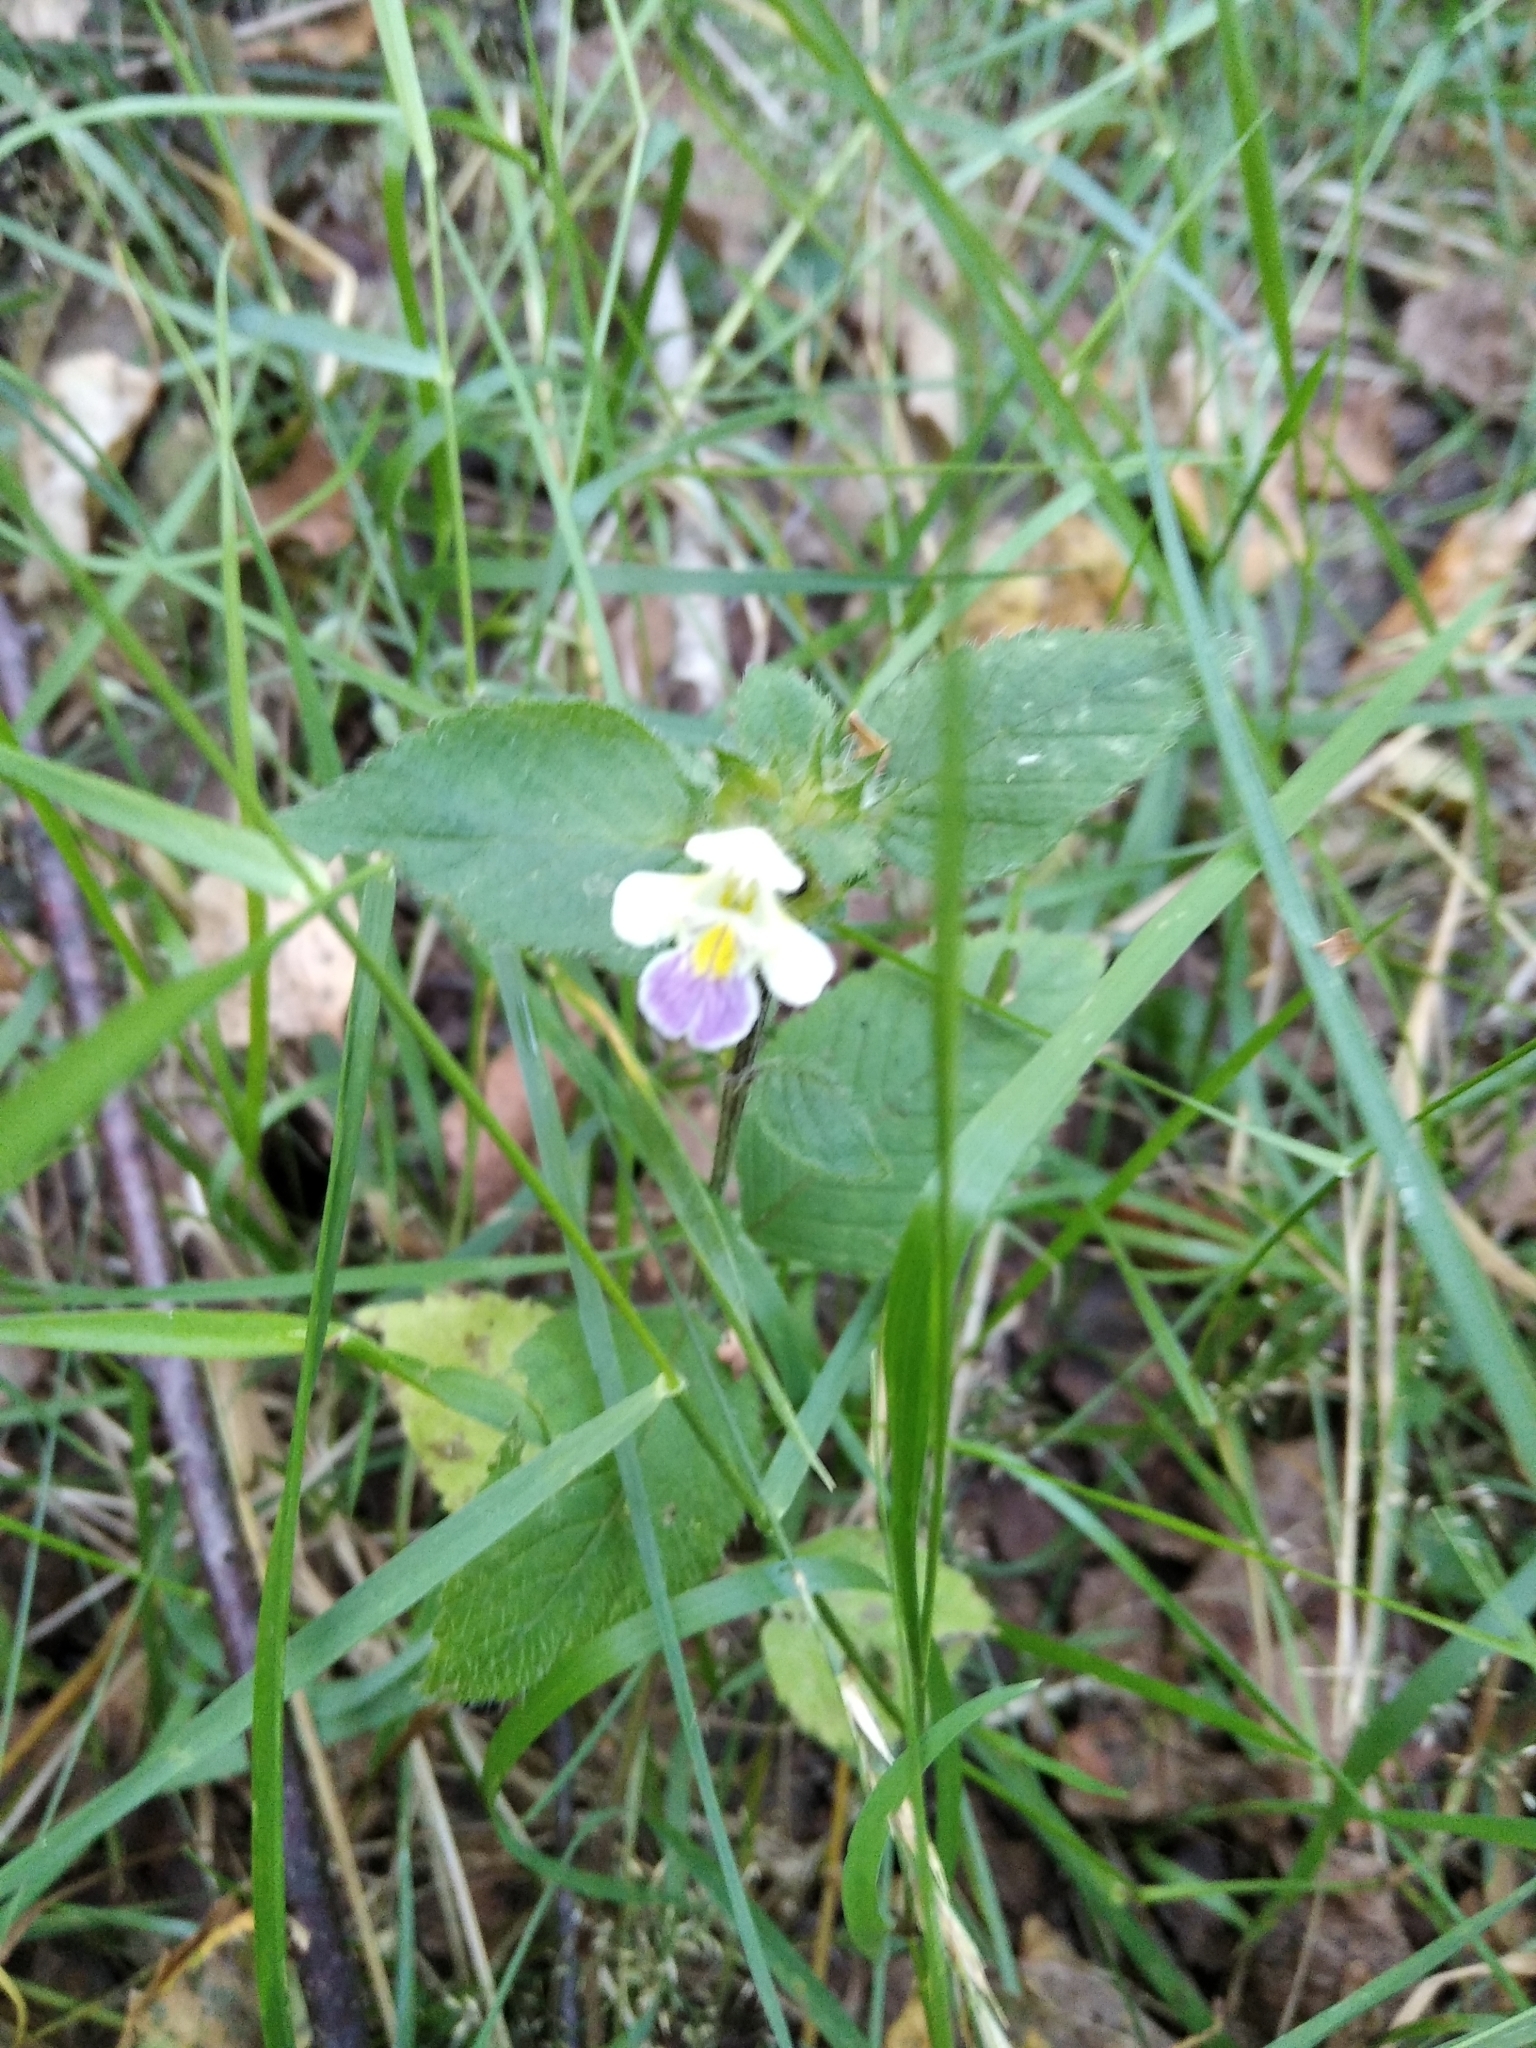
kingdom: Plantae
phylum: Tracheophyta
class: Magnoliopsida
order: Lamiales
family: Lamiaceae
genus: Galeopsis
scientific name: Galeopsis speciosa
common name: Large-flowered hemp-nettle
